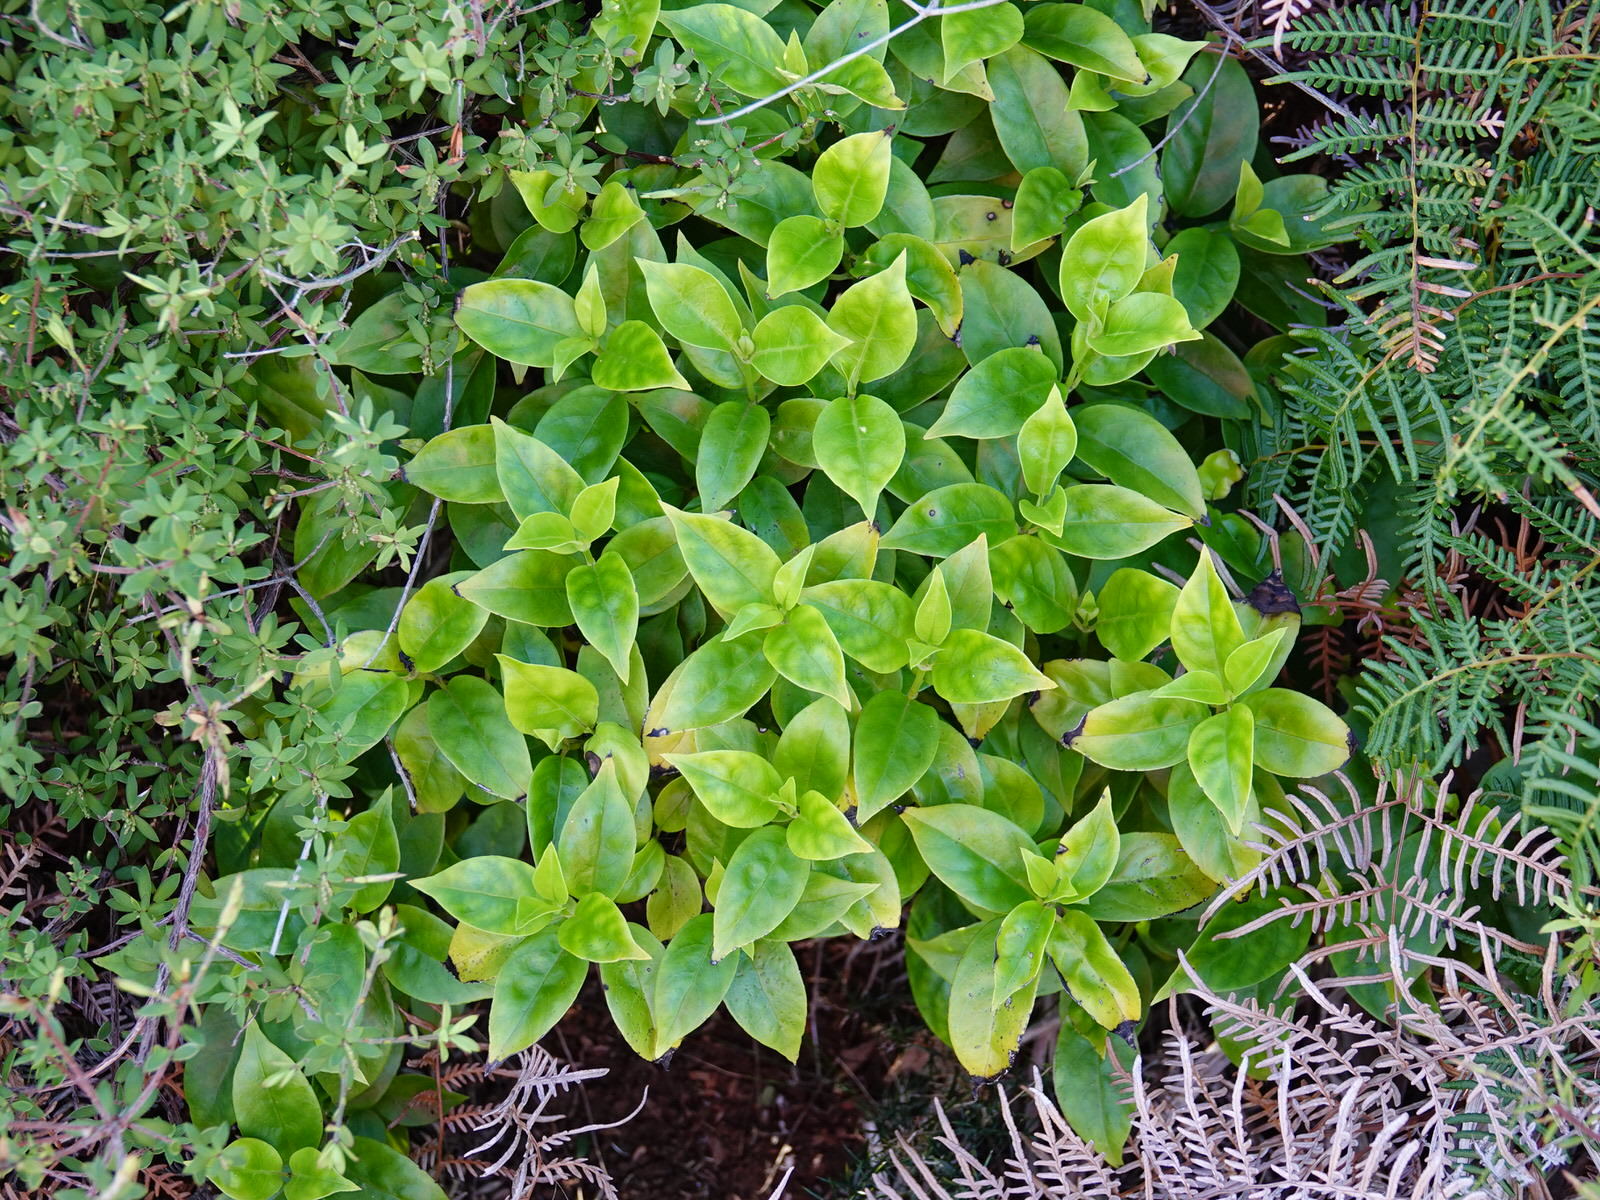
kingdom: Plantae
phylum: Tracheophyta
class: Magnoliopsida
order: Gentianales
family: Loganiaceae
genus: Geniostoma
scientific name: Geniostoma ligustrifolium
